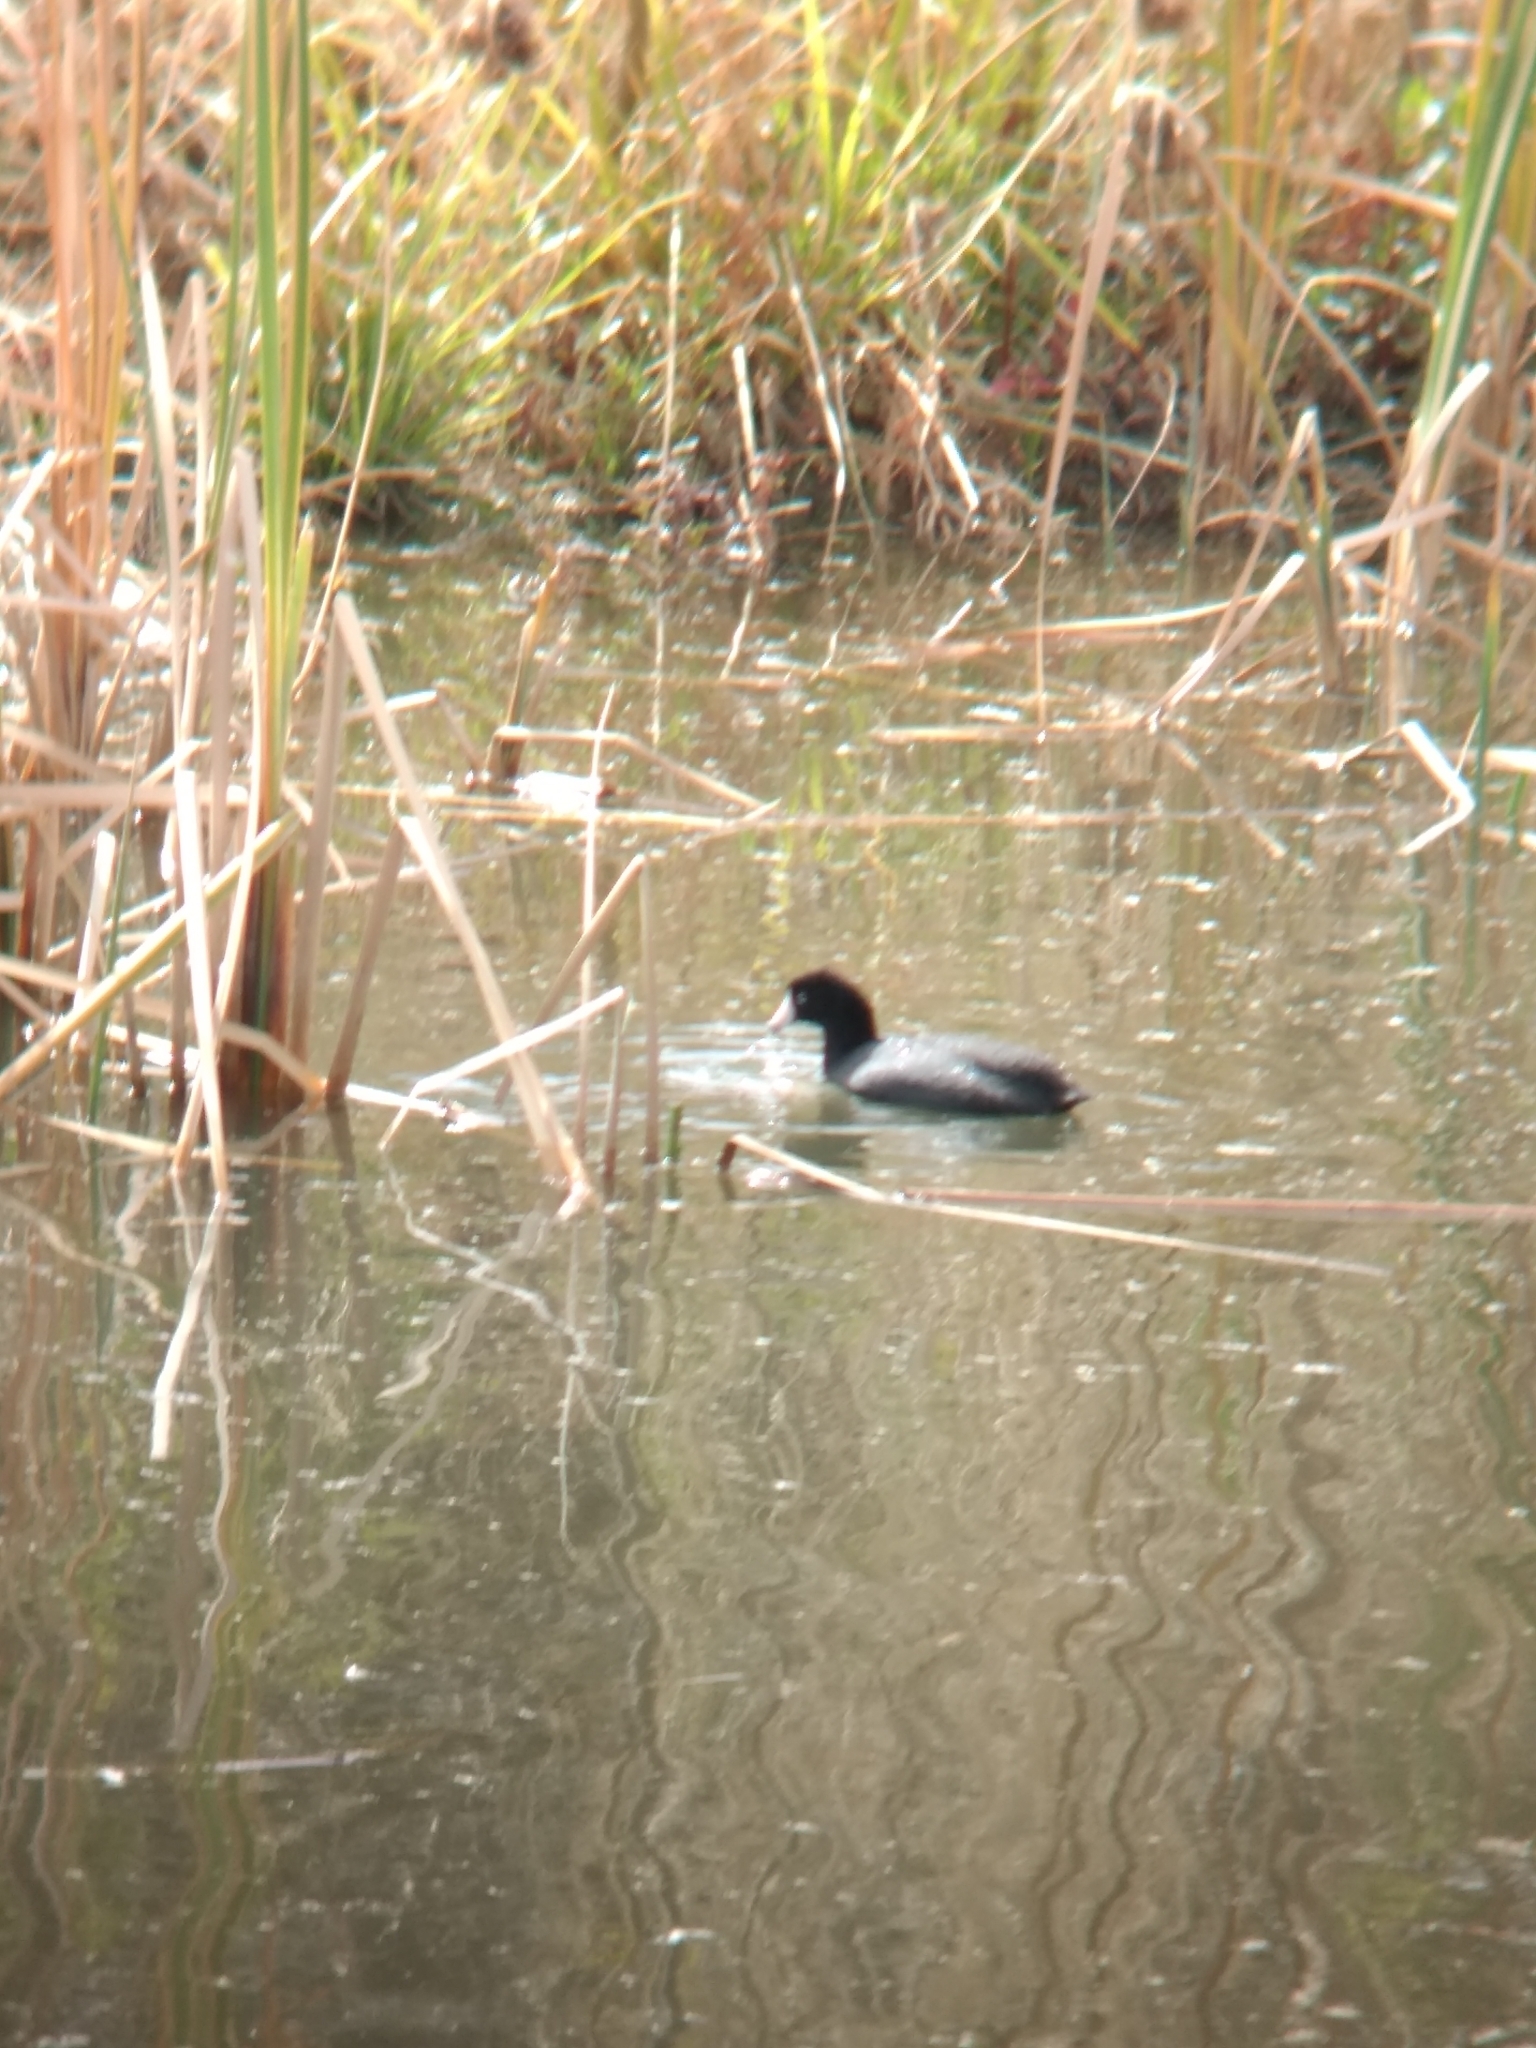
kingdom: Animalia
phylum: Chordata
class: Aves
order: Gruiformes
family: Rallidae
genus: Fulica
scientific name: Fulica americana
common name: American coot
